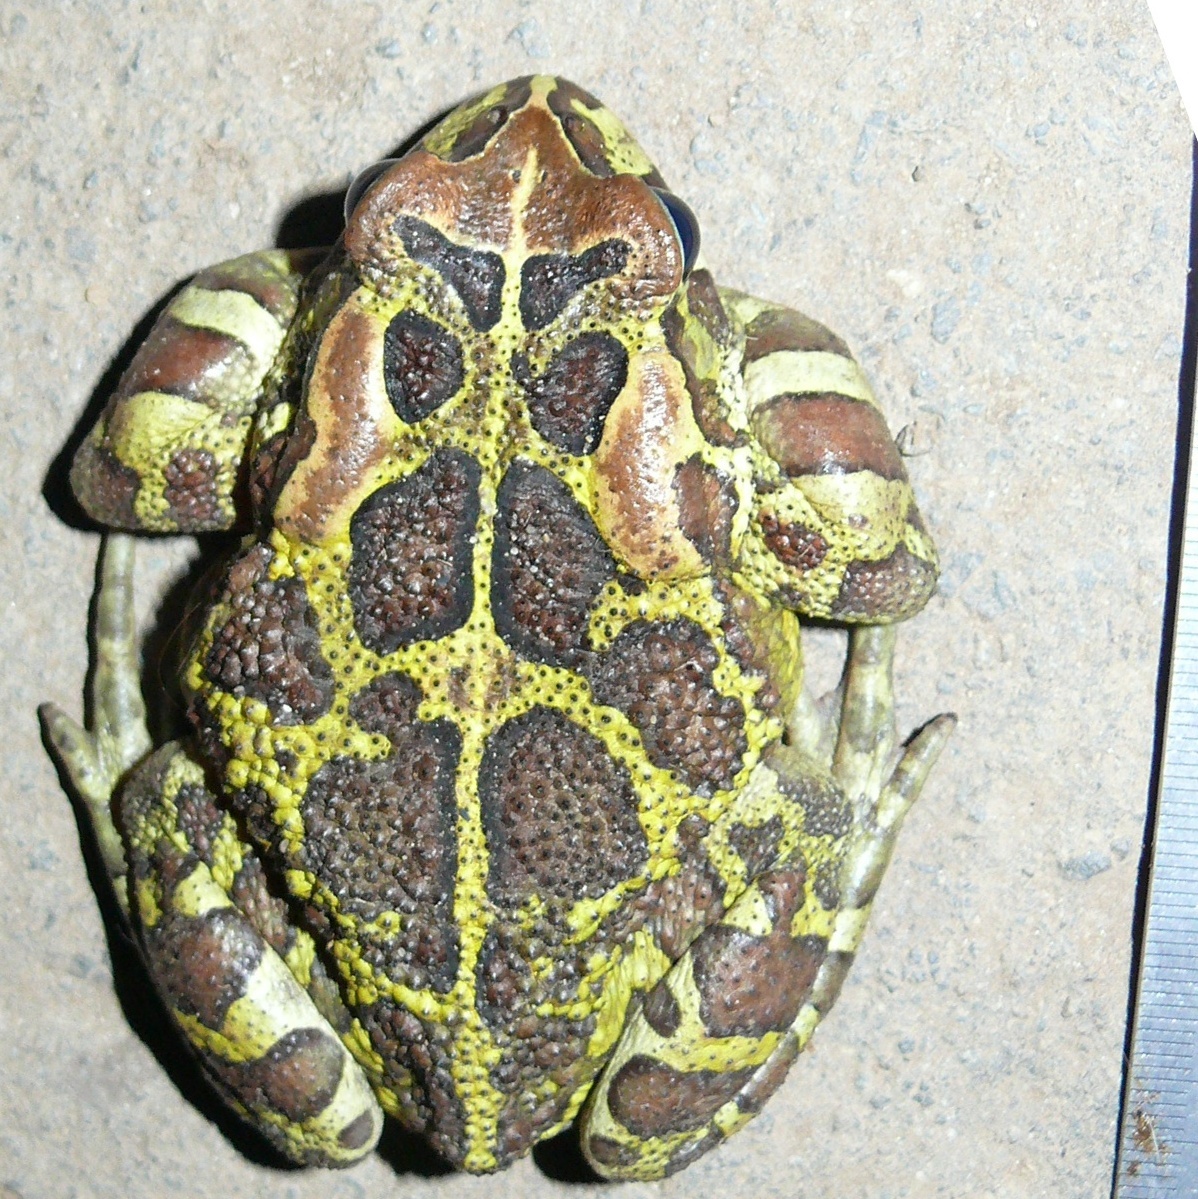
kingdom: Animalia
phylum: Chordata
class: Amphibia
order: Anura
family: Bufonidae
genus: Sclerophrys
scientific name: Sclerophrys pantherina
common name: Panther toad
